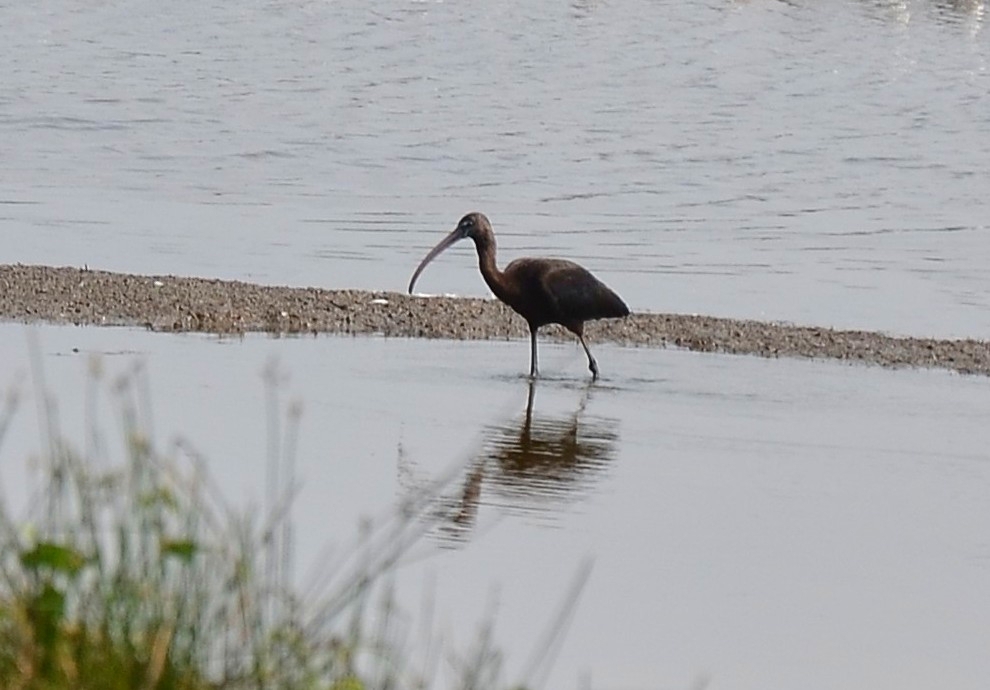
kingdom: Animalia
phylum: Chordata
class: Aves
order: Pelecaniformes
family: Threskiornithidae
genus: Plegadis
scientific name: Plegadis falcinellus
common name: Glossy ibis
